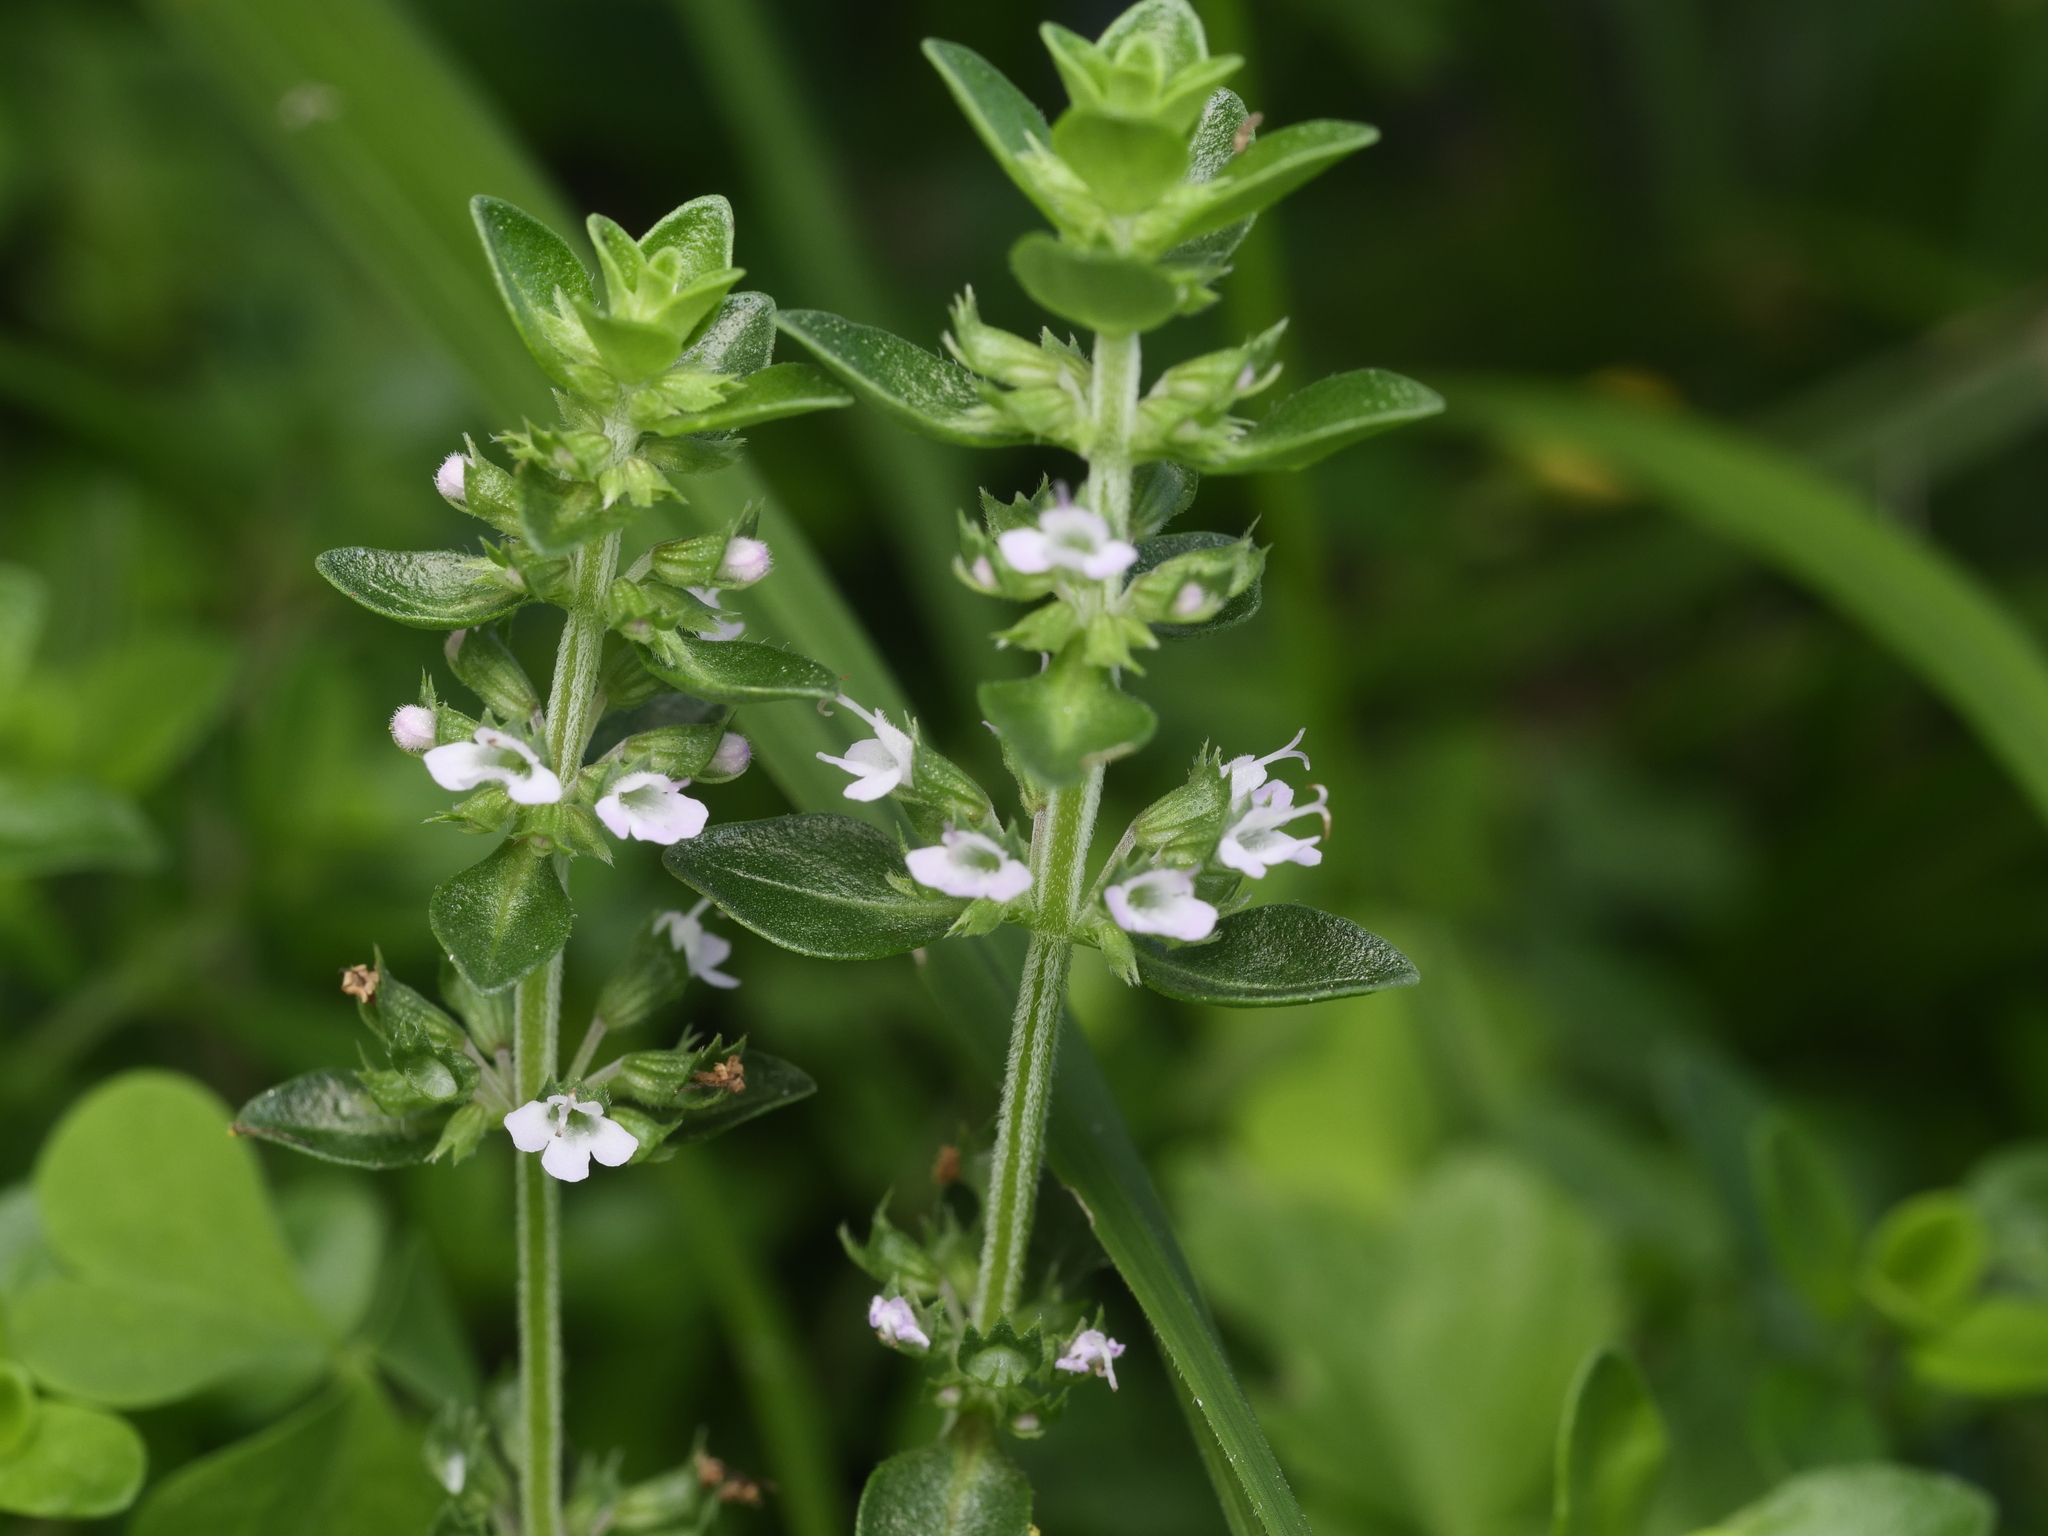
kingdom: Plantae
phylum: Tracheophyta
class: Magnoliopsida
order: Lamiales
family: Lamiaceae
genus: Thymus
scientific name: Thymus pulegioides
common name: Large thyme
